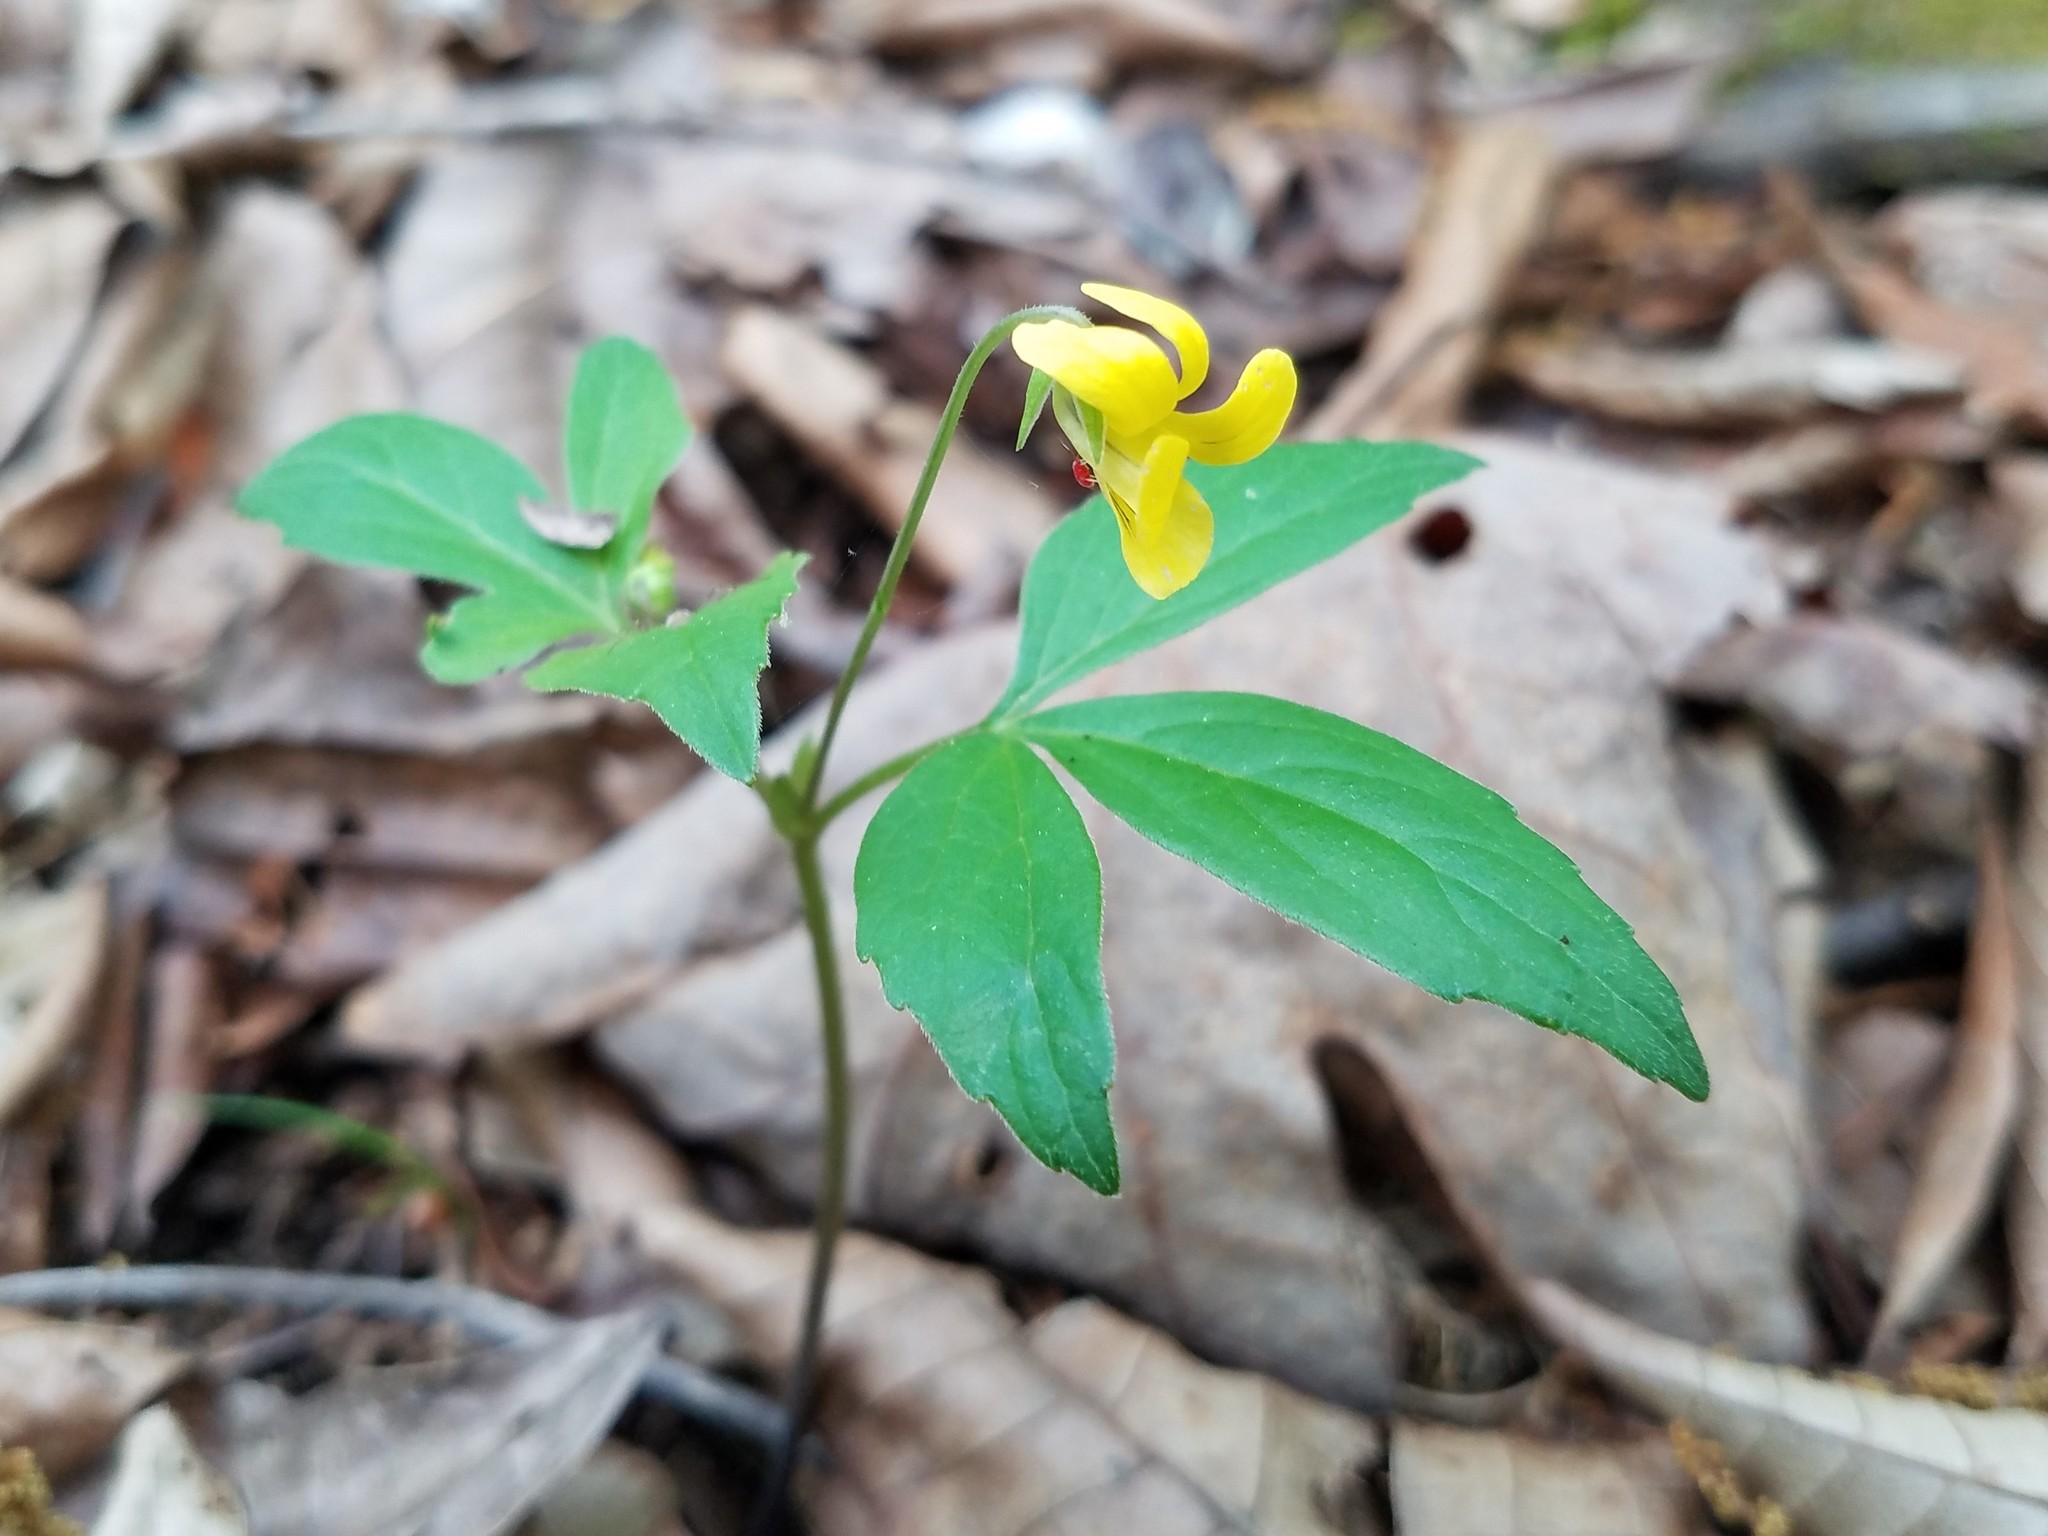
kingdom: Plantae
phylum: Tracheophyta
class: Magnoliopsida
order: Malpighiales
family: Violaceae
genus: Viola
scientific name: Viola tripartita
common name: Three-part violet
